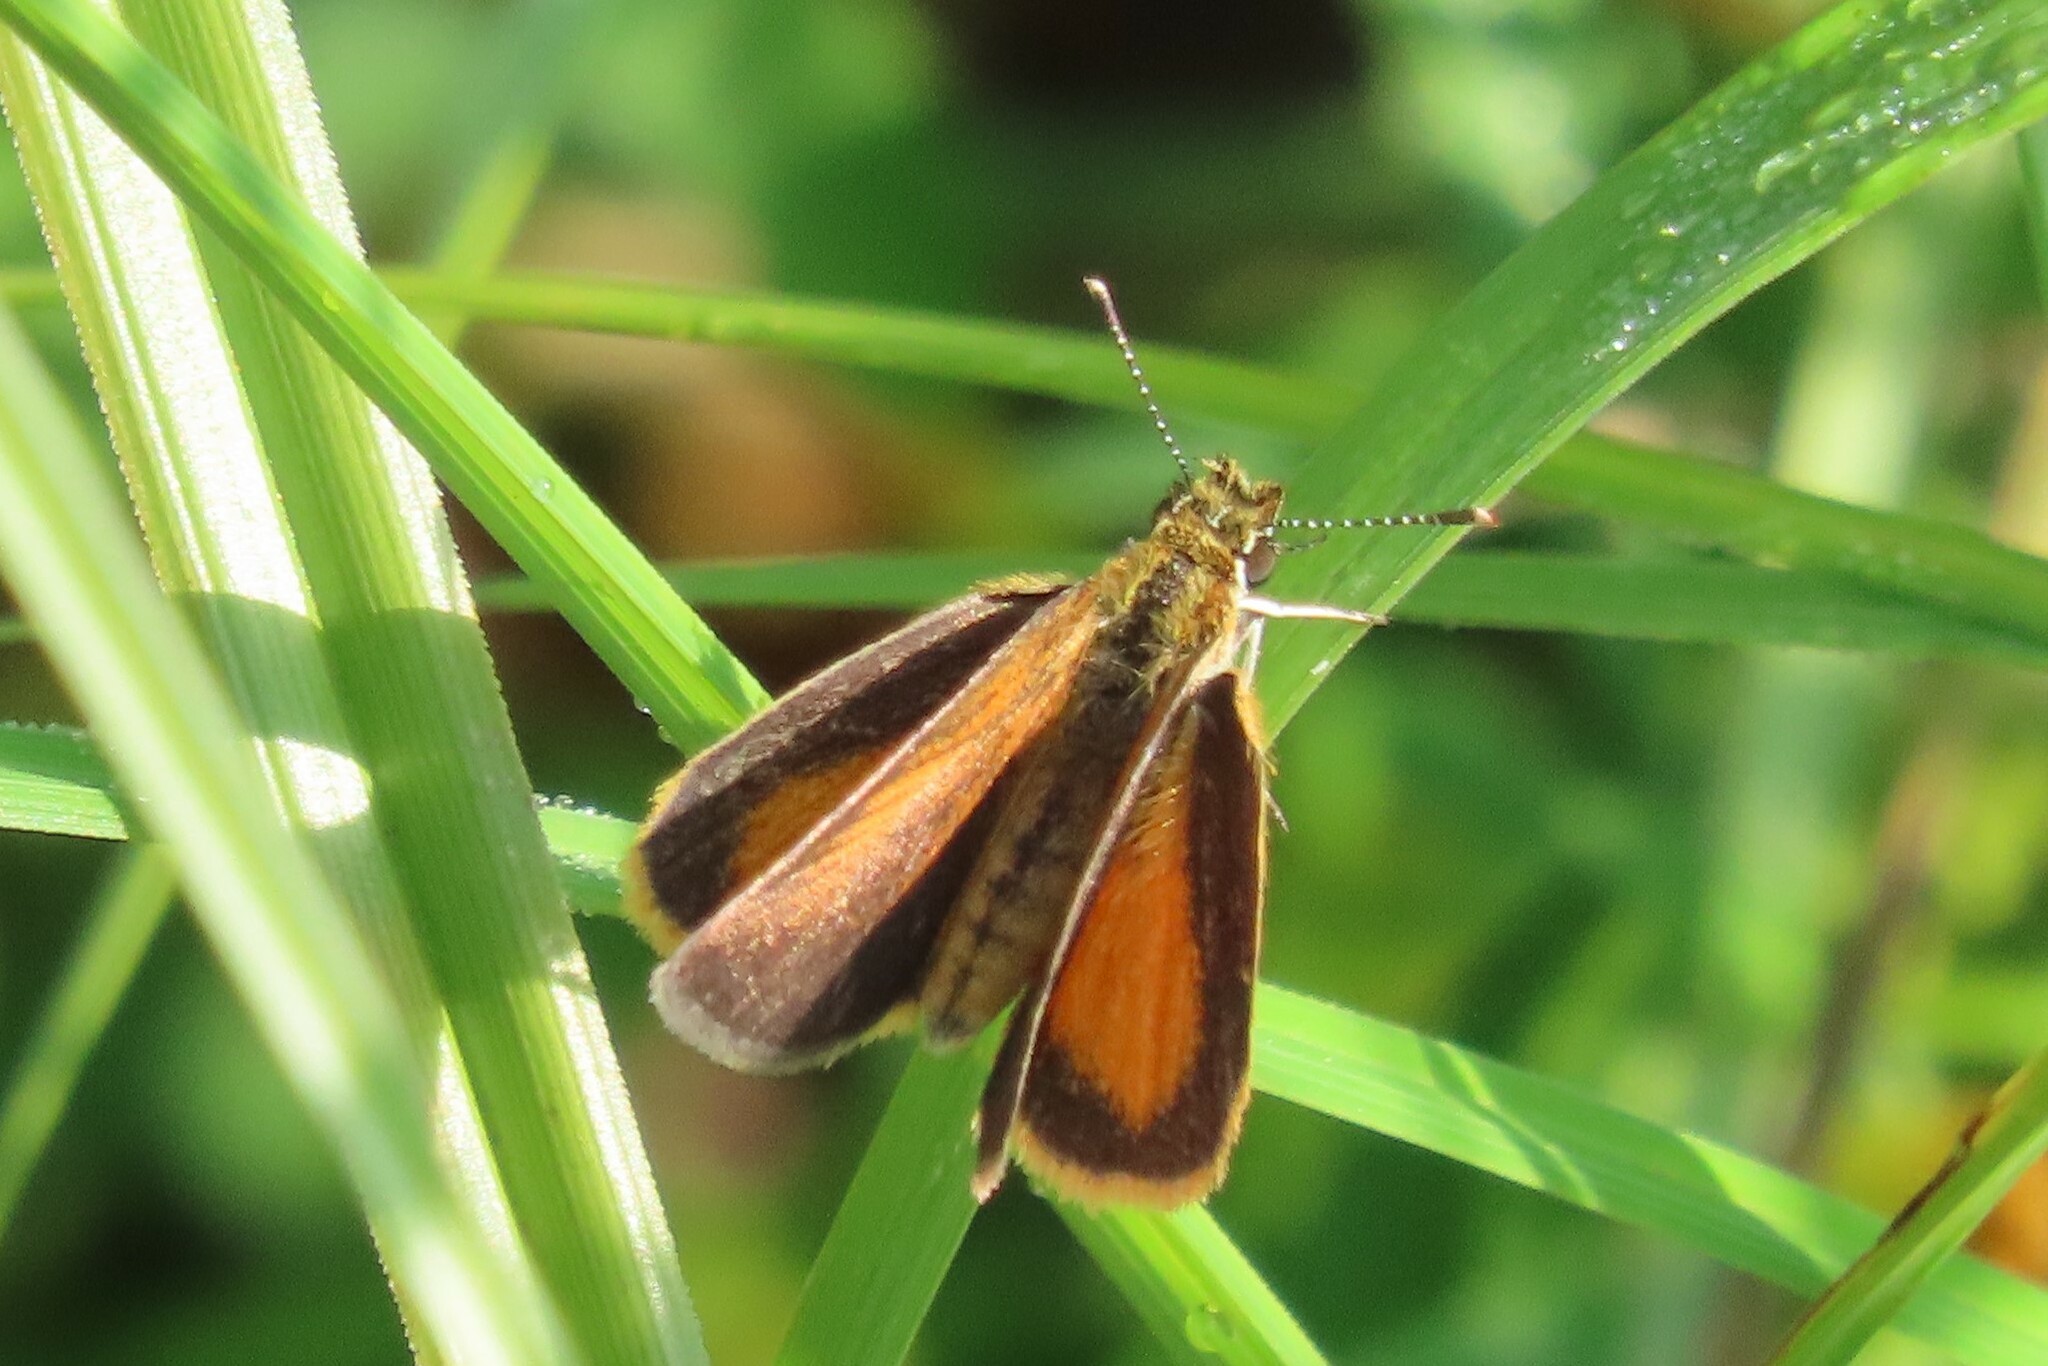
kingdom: Animalia
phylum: Arthropoda
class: Insecta
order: Lepidoptera
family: Hesperiidae
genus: Ancyloxypha
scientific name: Ancyloxypha numitor
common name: Least skipper
